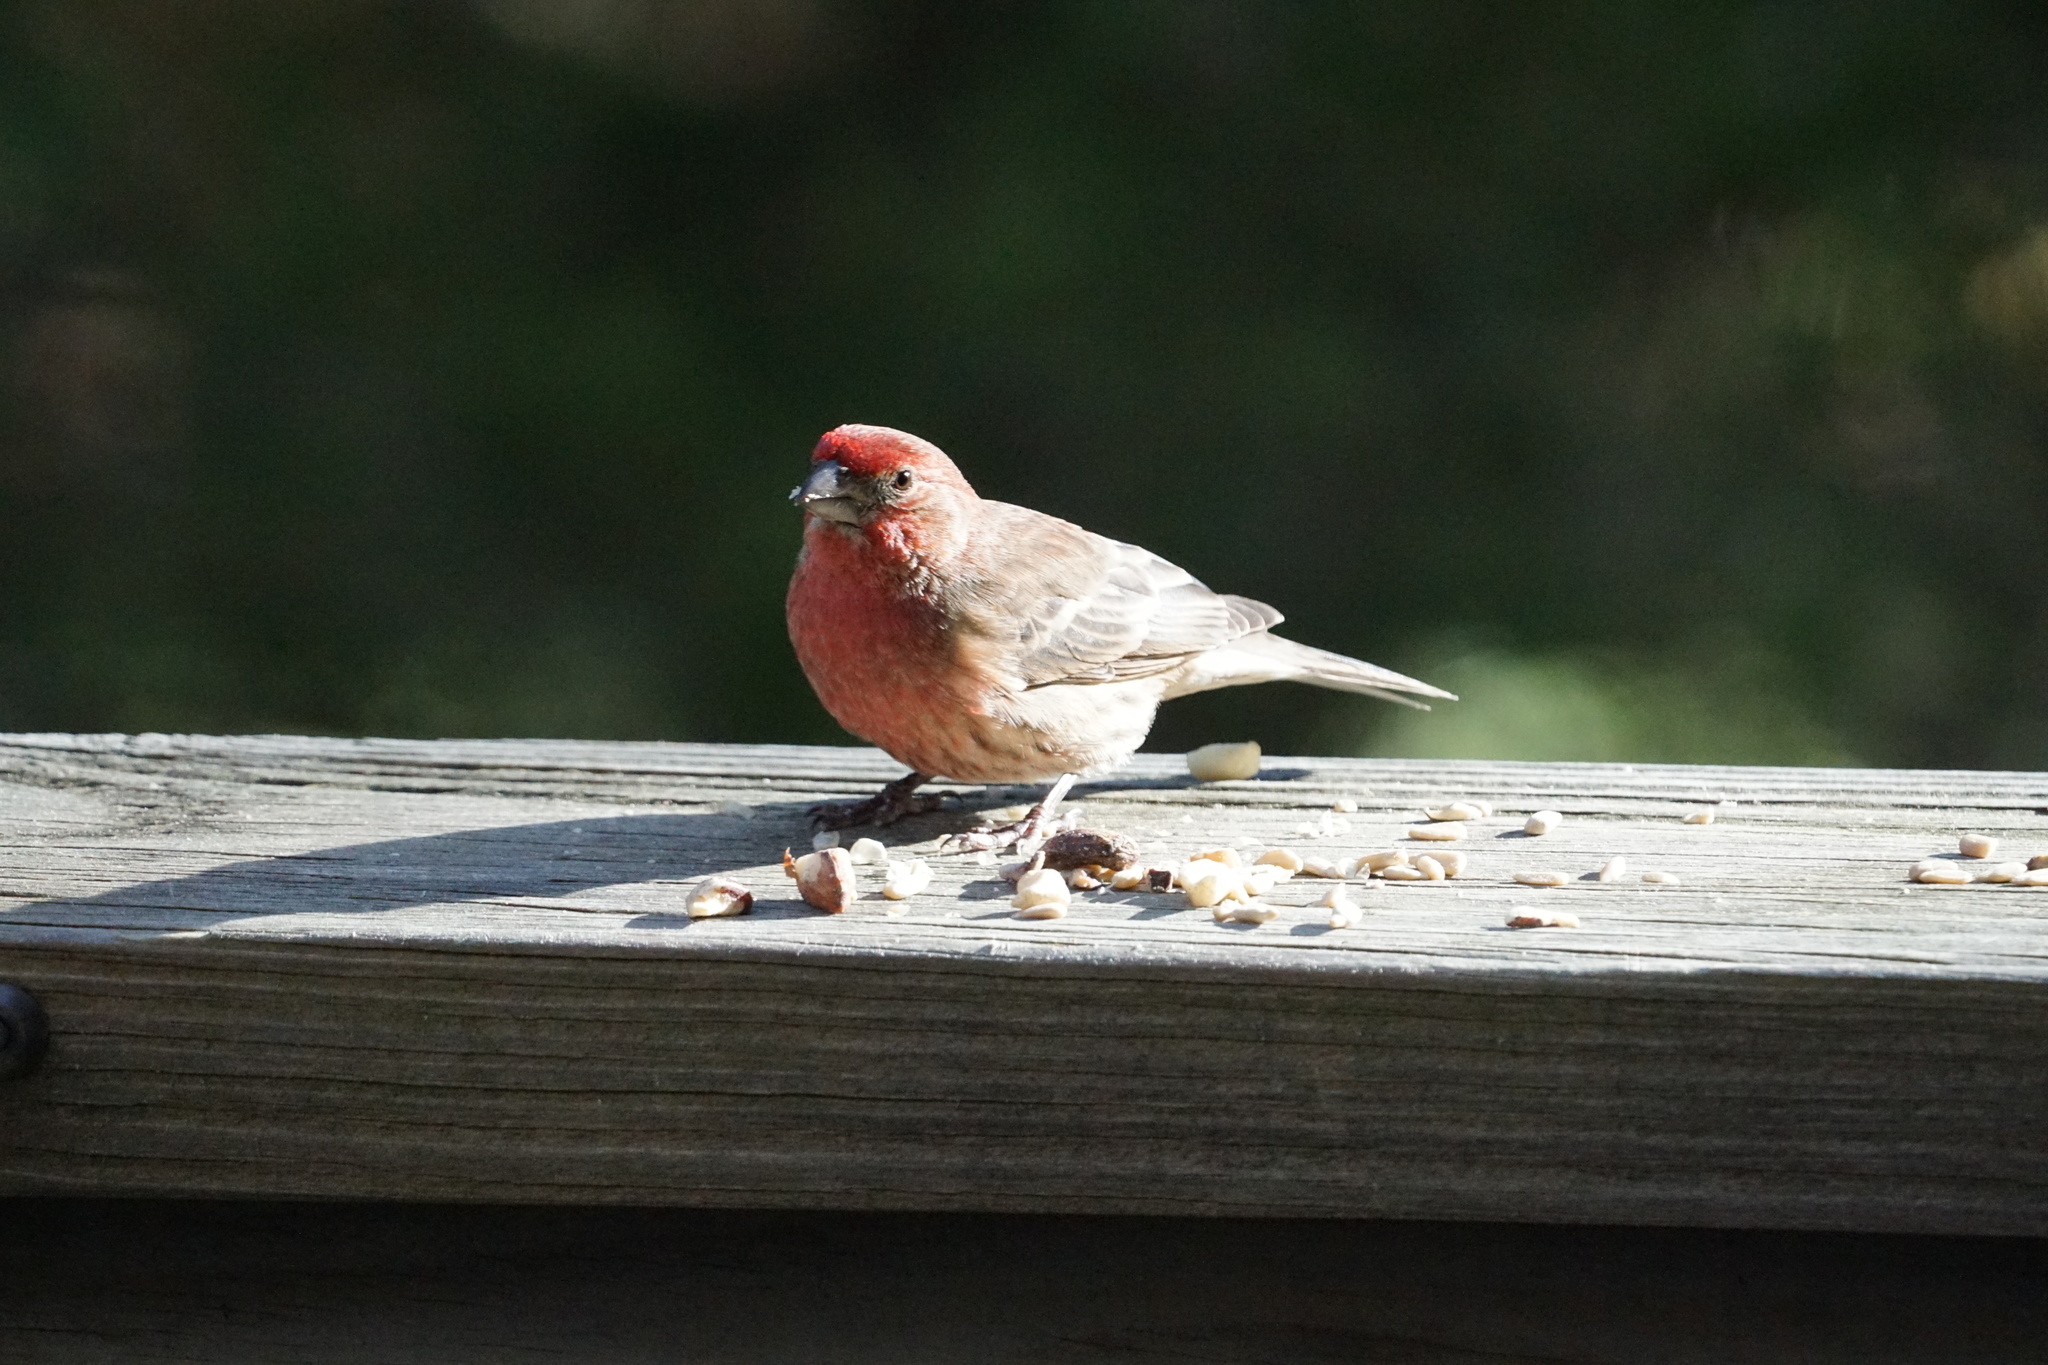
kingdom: Animalia
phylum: Chordata
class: Aves
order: Passeriformes
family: Fringillidae
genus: Haemorhous
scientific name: Haemorhous mexicanus
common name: House finch
